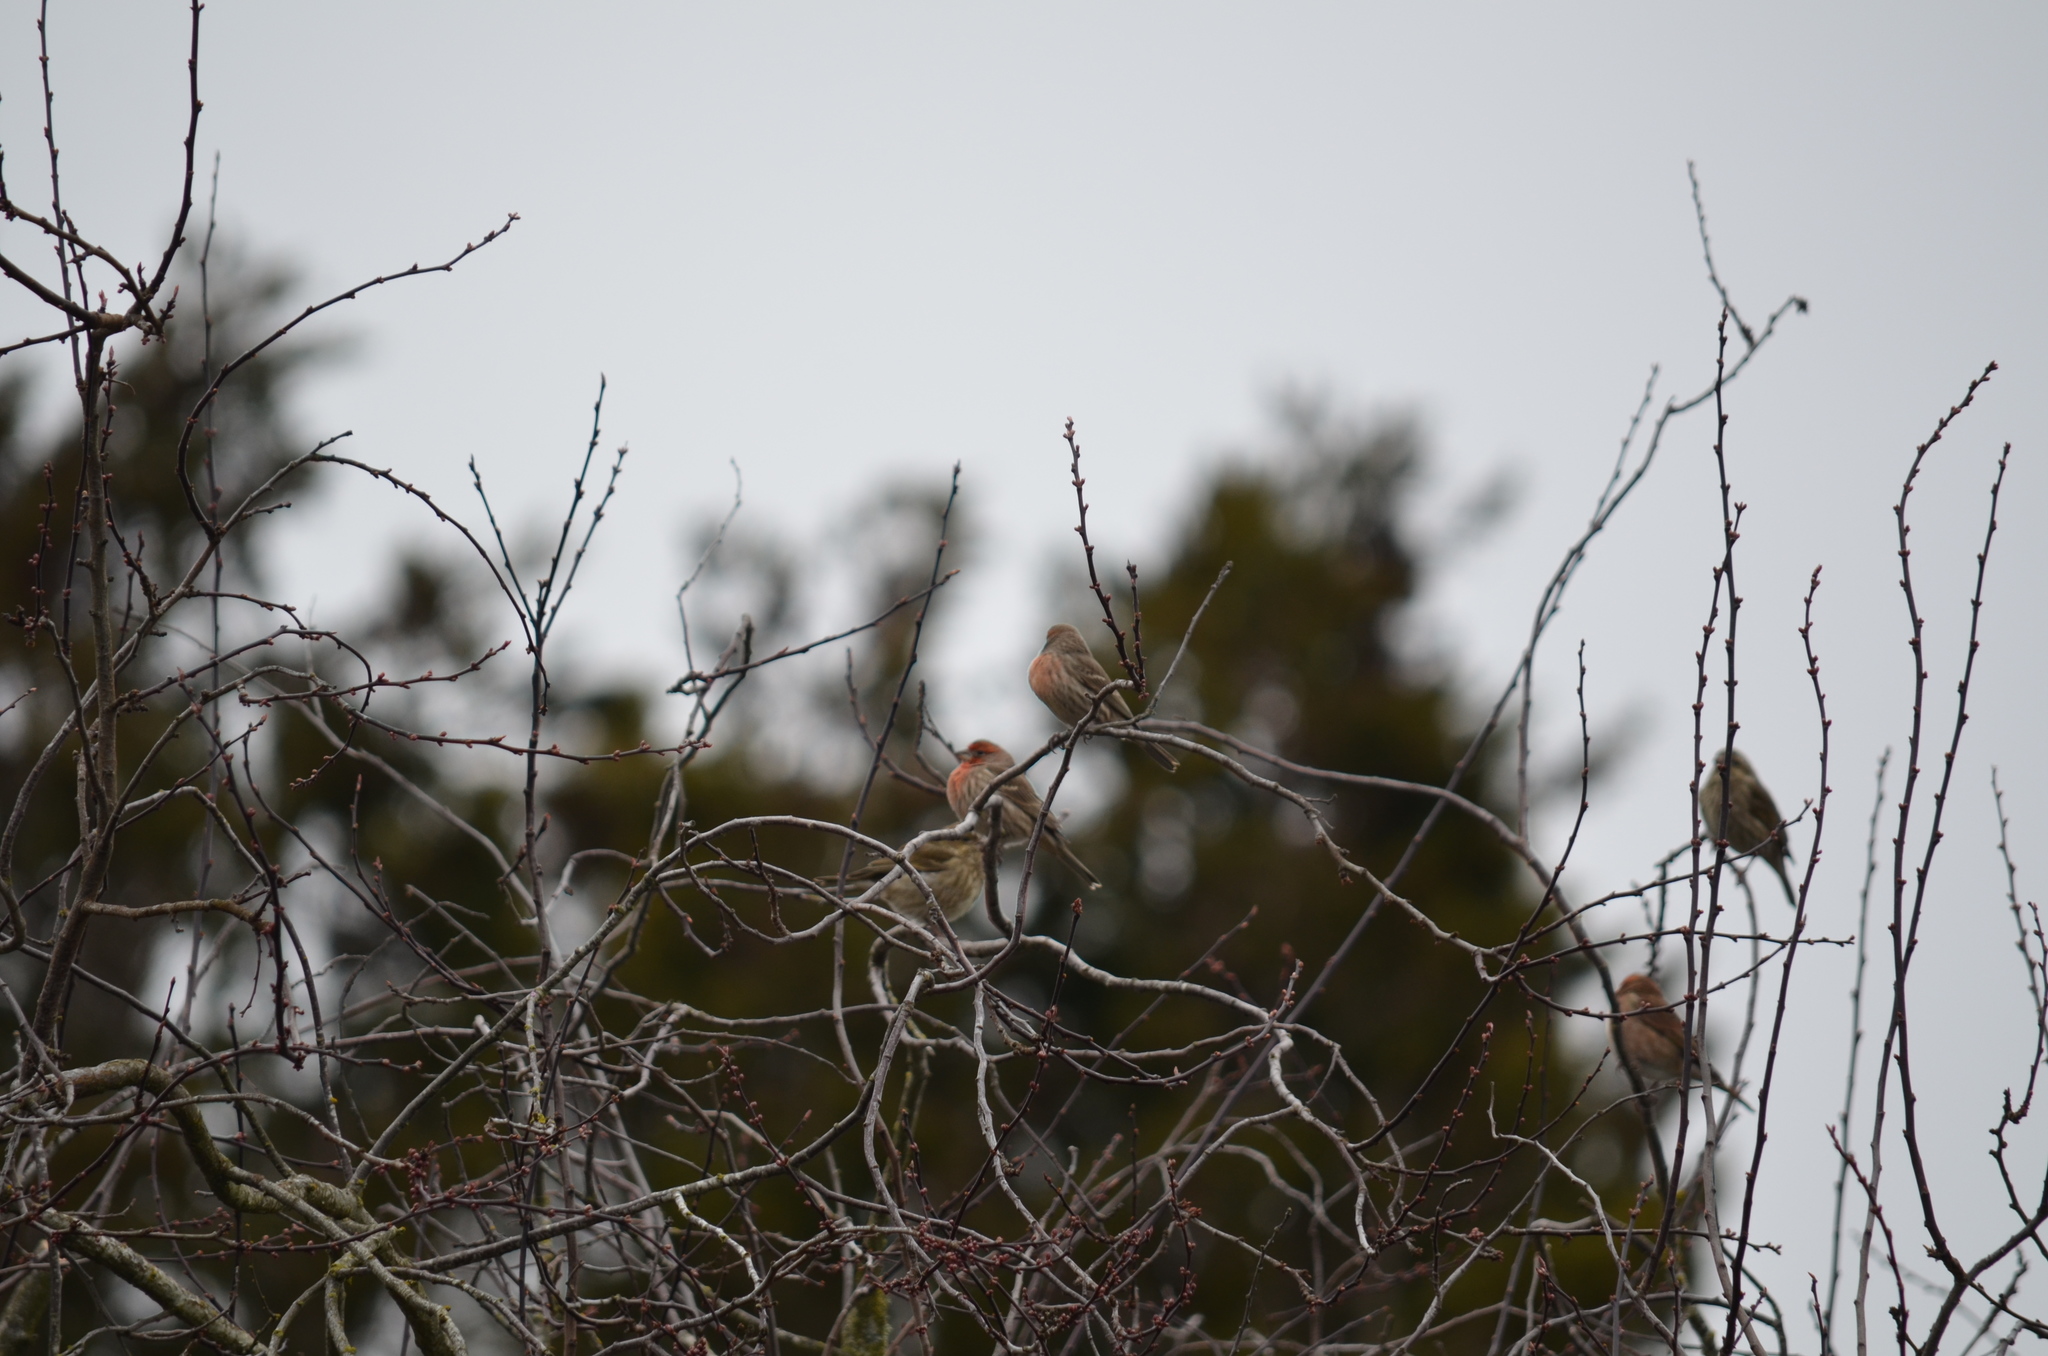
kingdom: Animalia
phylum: Chordata
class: Aves
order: Passeriformes
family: Fringillidae
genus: Haemorhous
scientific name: Haemorhous mexicanus
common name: House finch
